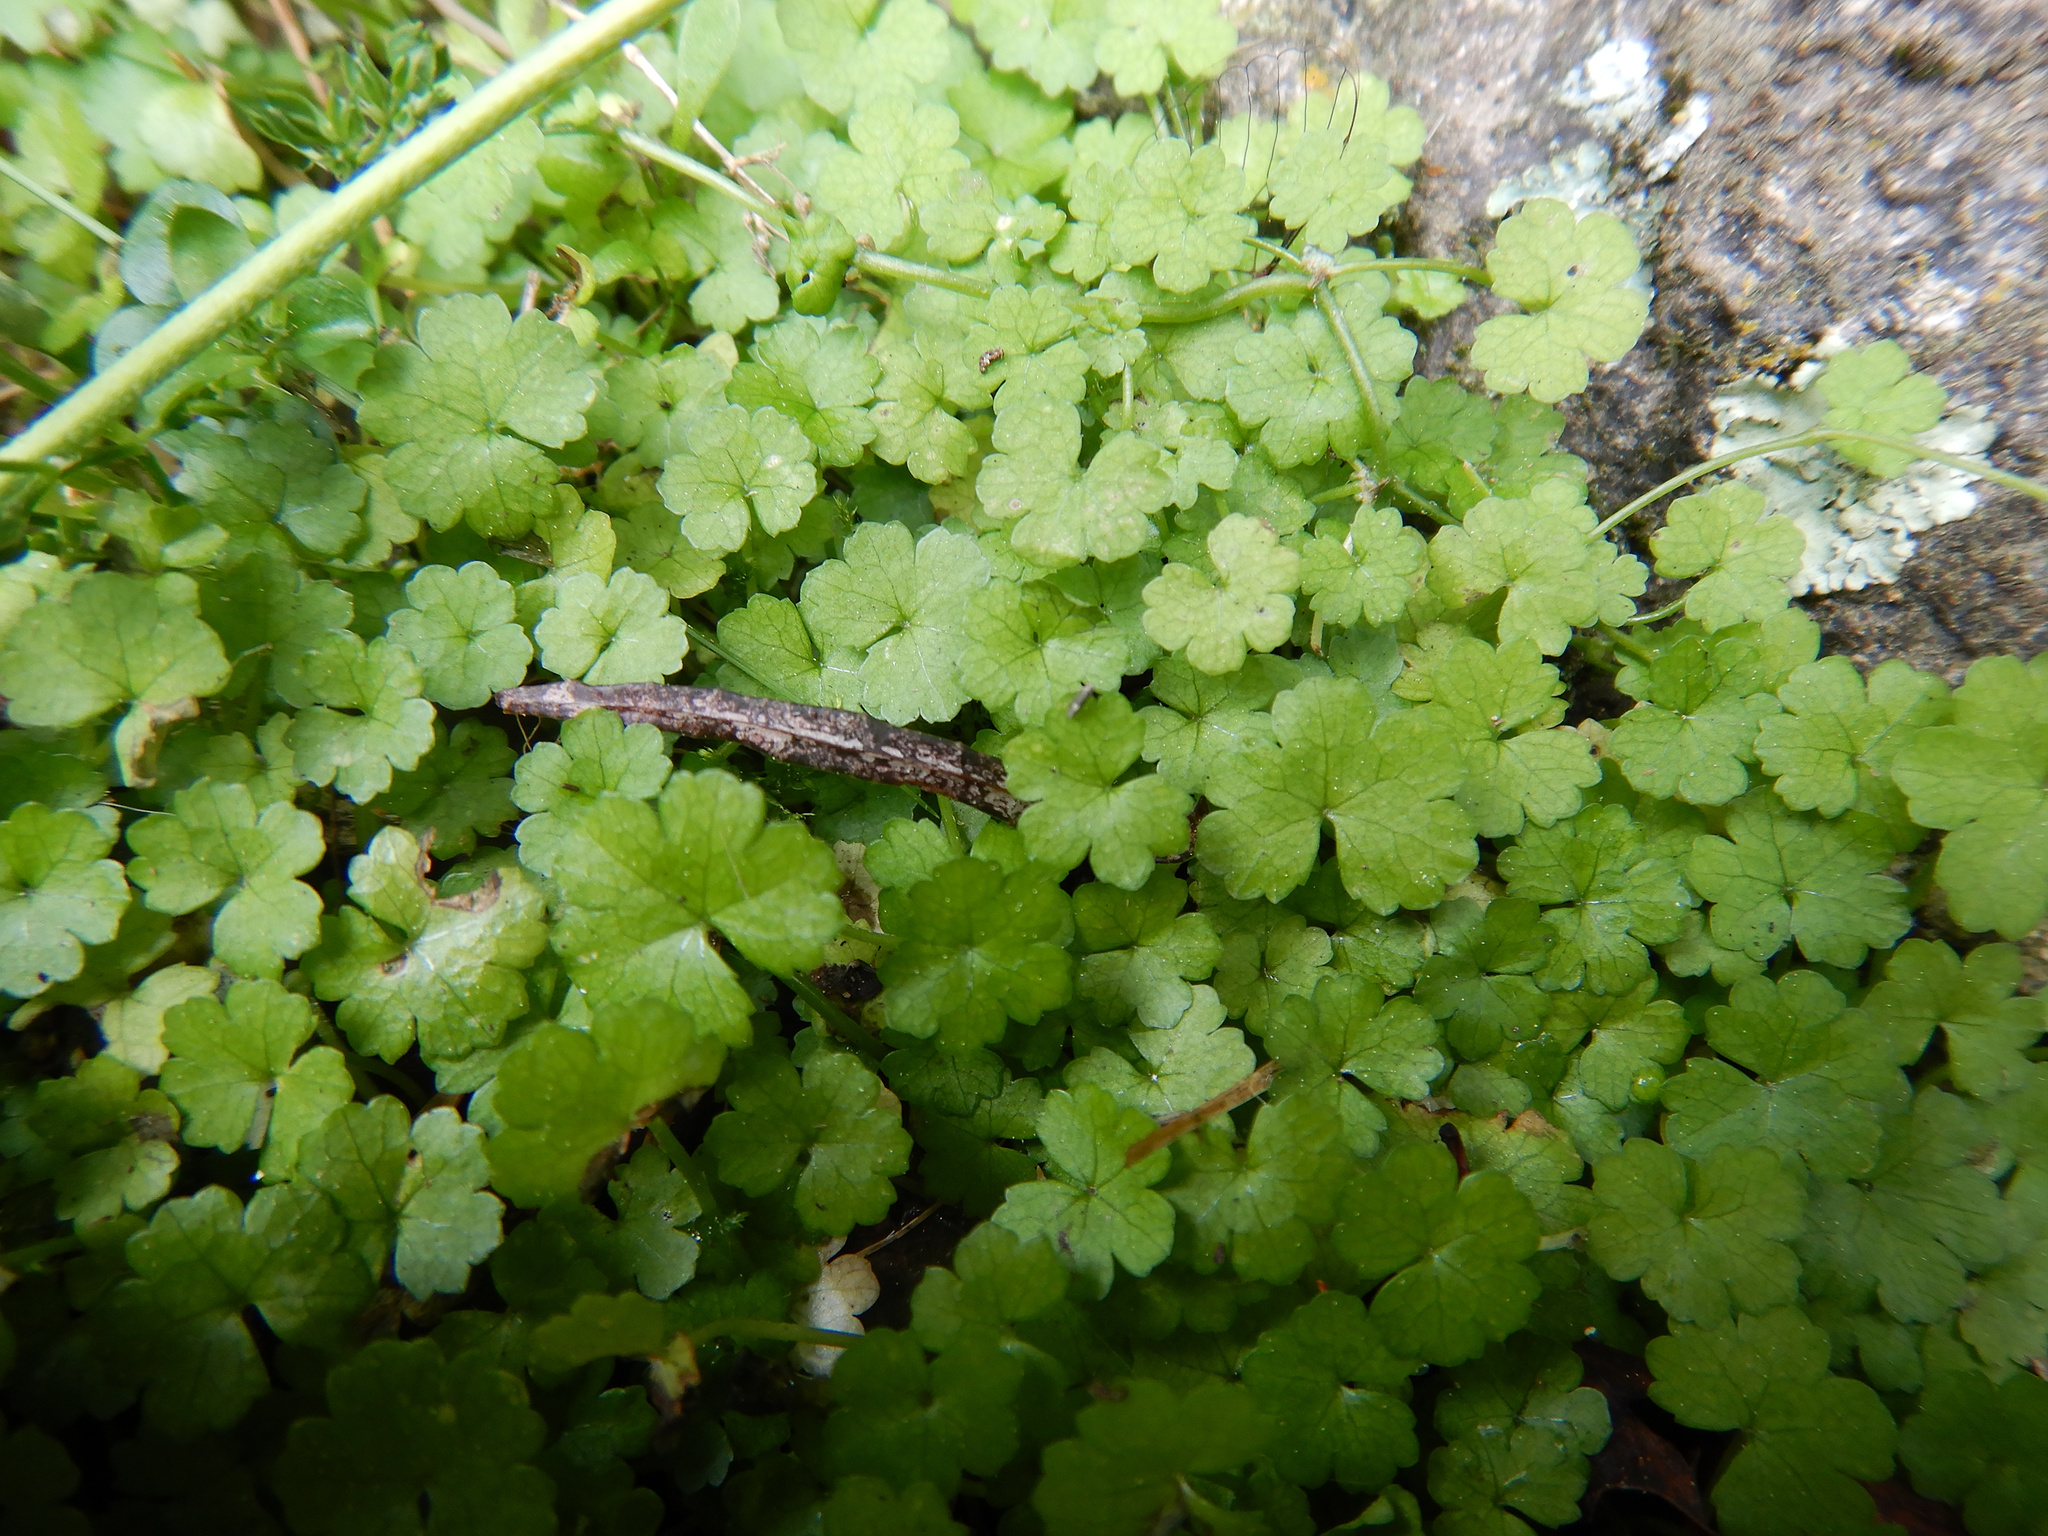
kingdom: Plantae
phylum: Tracheophyta
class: Magnoliopsida
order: Apiales
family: Araliaceae
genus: Hydrocotyle
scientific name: Hydrocotyle heteromeria
